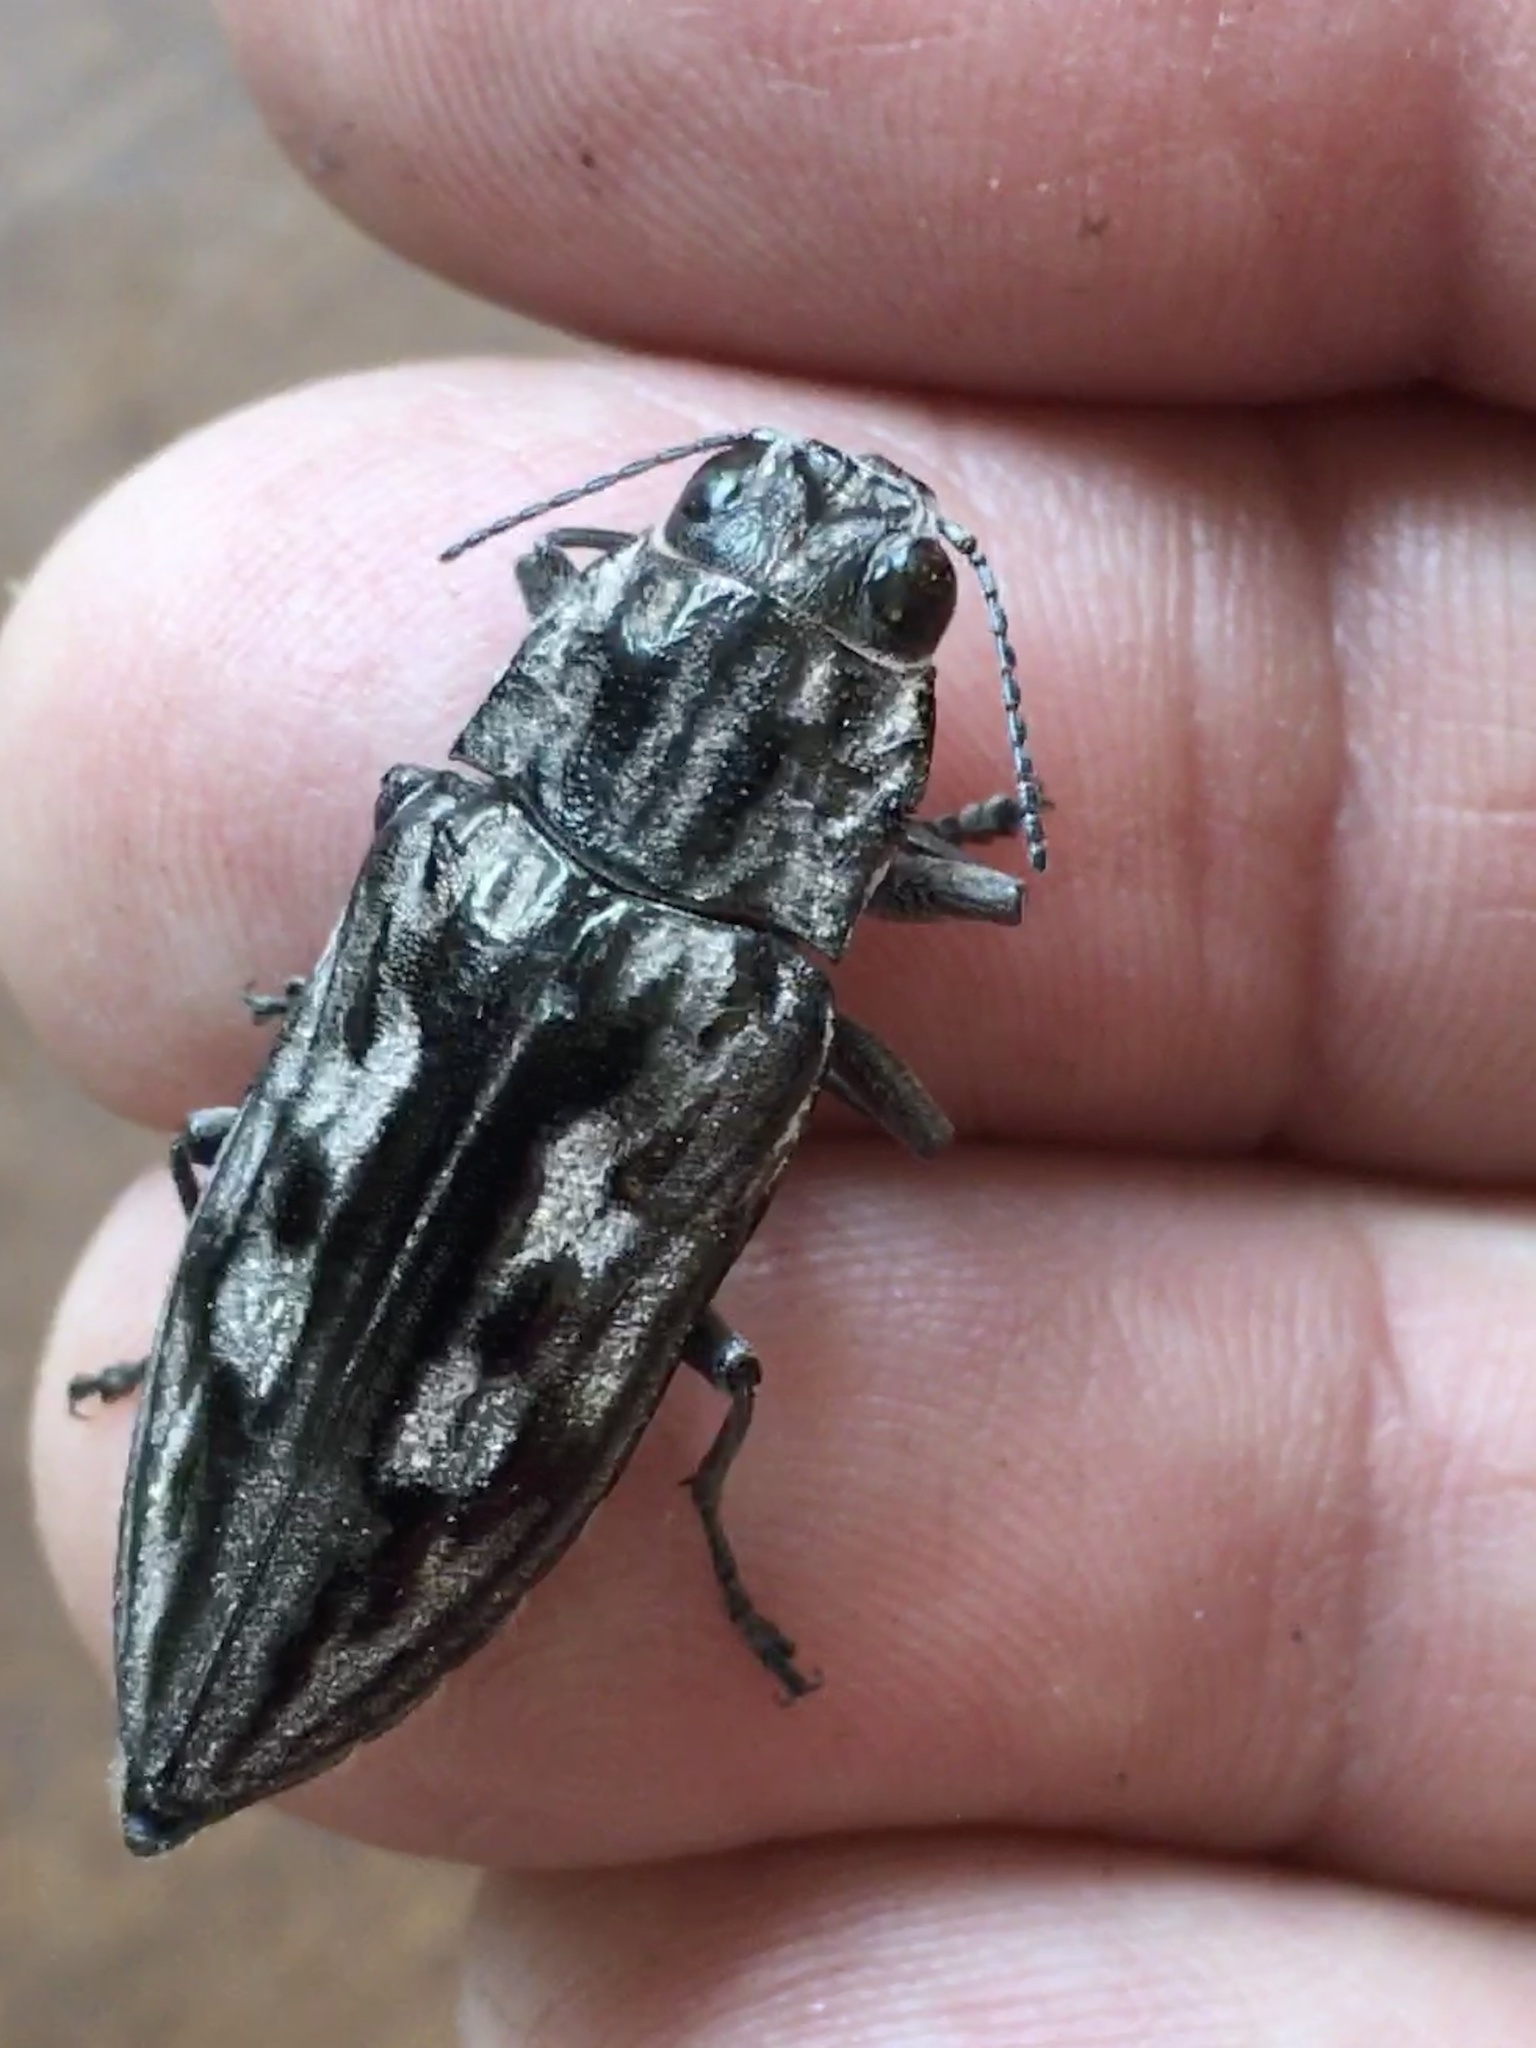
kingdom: Animalia
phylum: Arthropoda
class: Insecta
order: Coleoptera
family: Buprestidae
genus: Chalcophora
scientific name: Chalcophora virginiensis
